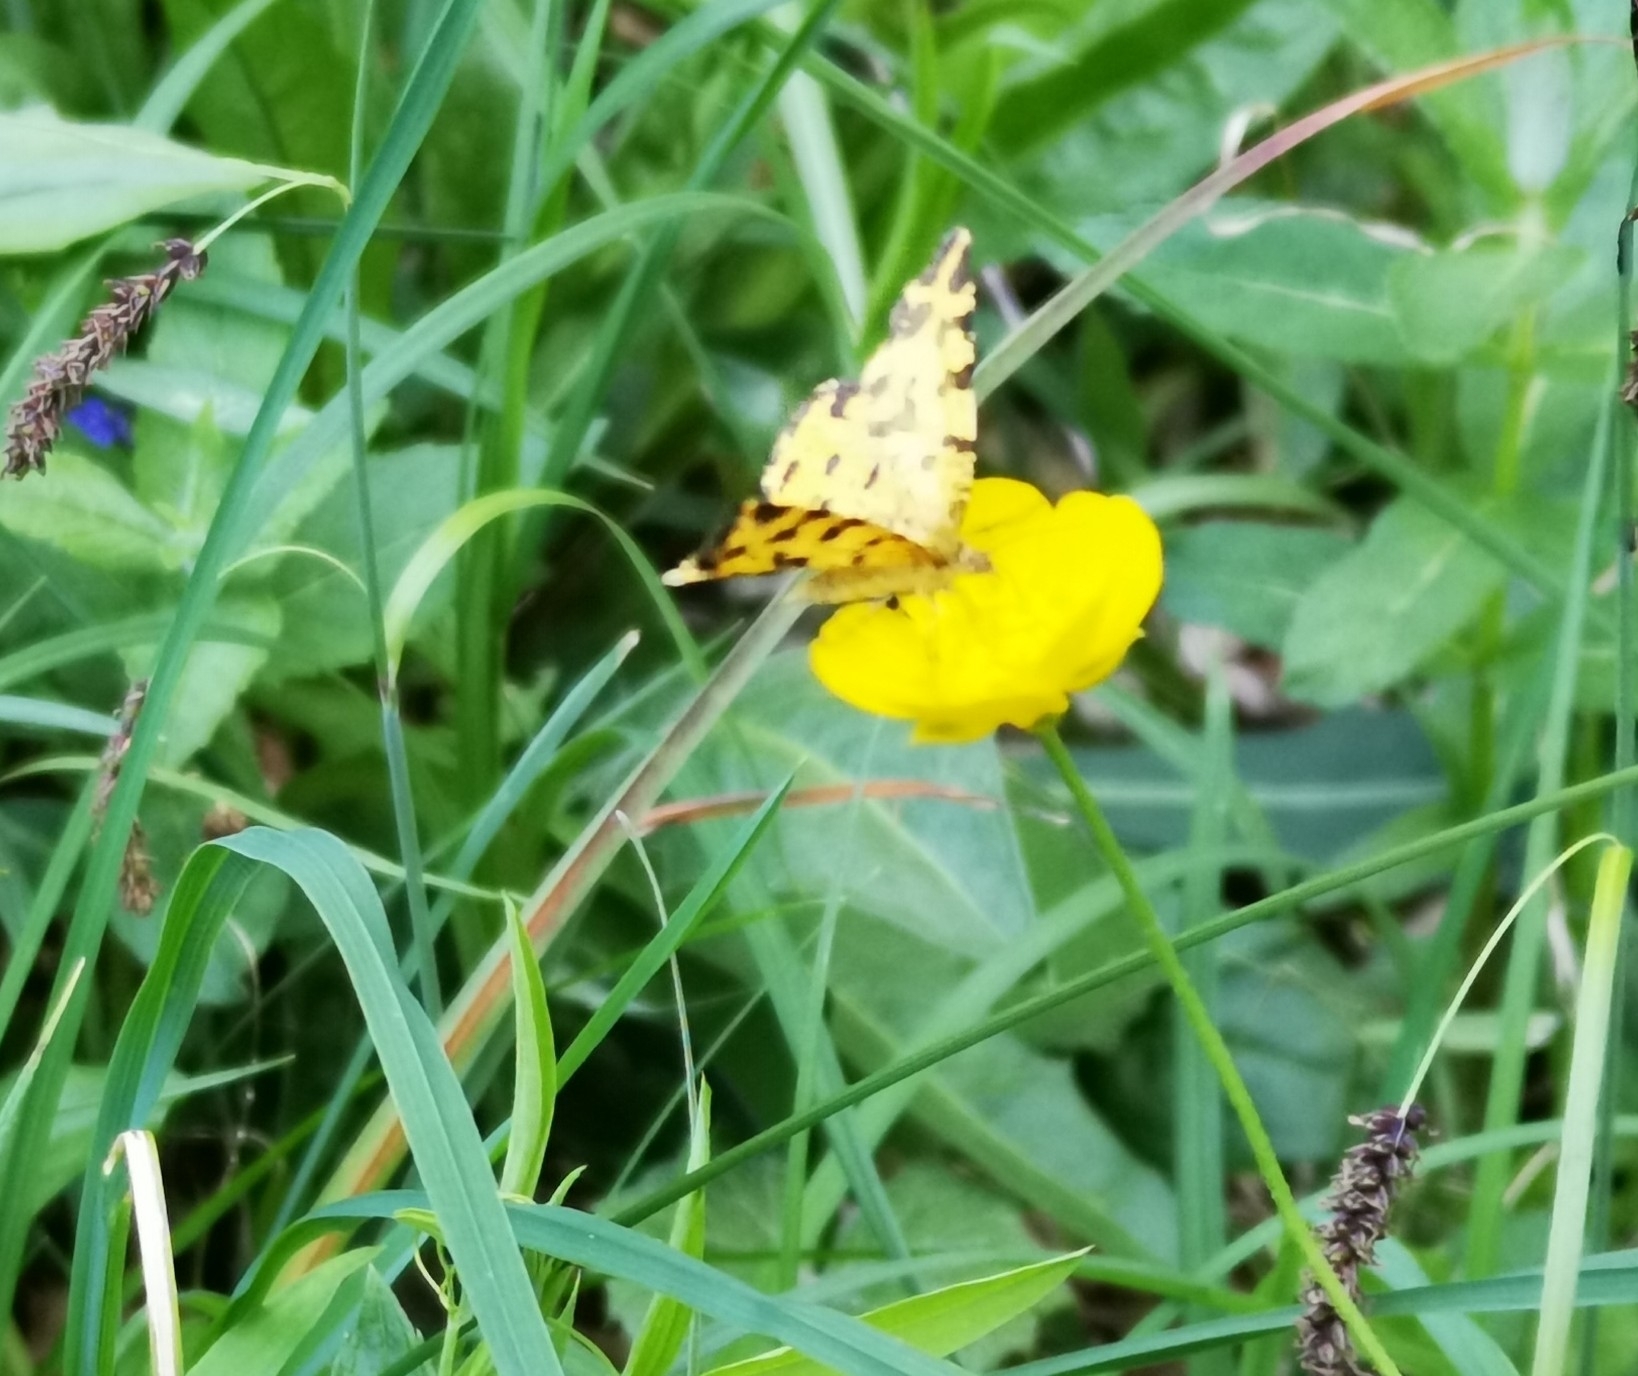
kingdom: Animalia
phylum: Arthropoda
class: Insecta
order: Lepidoptera
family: Geometridae
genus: Pseudopanthera
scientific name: Pseudopanthera macularia
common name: Speckled yellow
